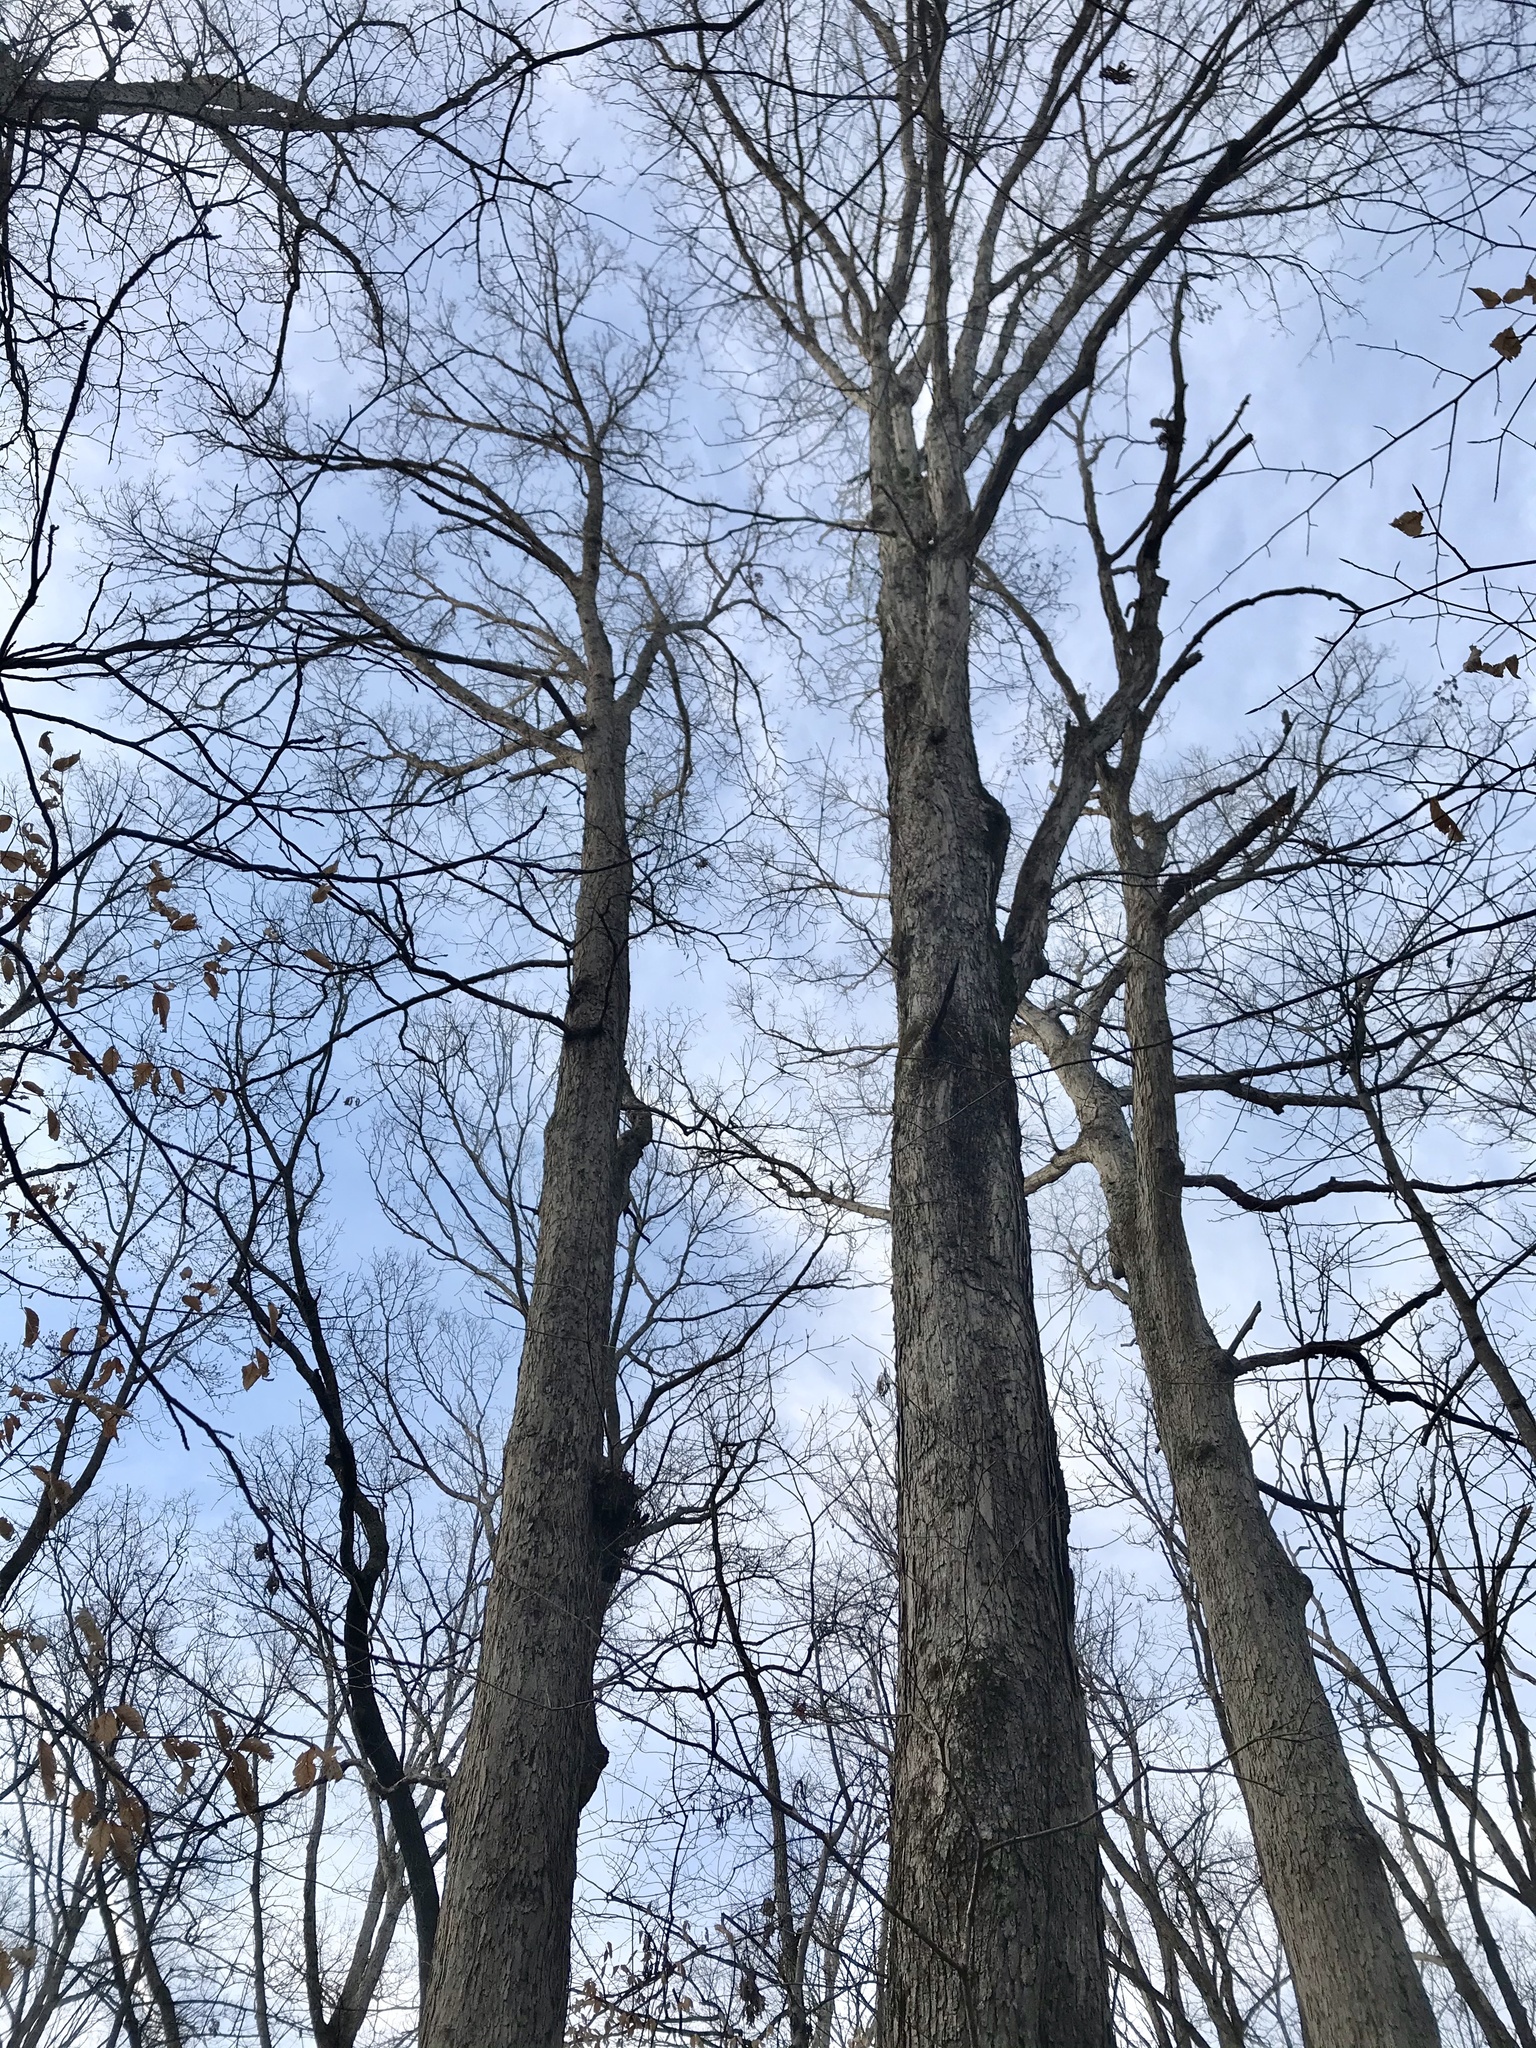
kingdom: Plantae
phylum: Tracheophyta
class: Magnoliopsida
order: Fagales
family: Fagaceae
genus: Quercus
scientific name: Quercus alba
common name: White oak
